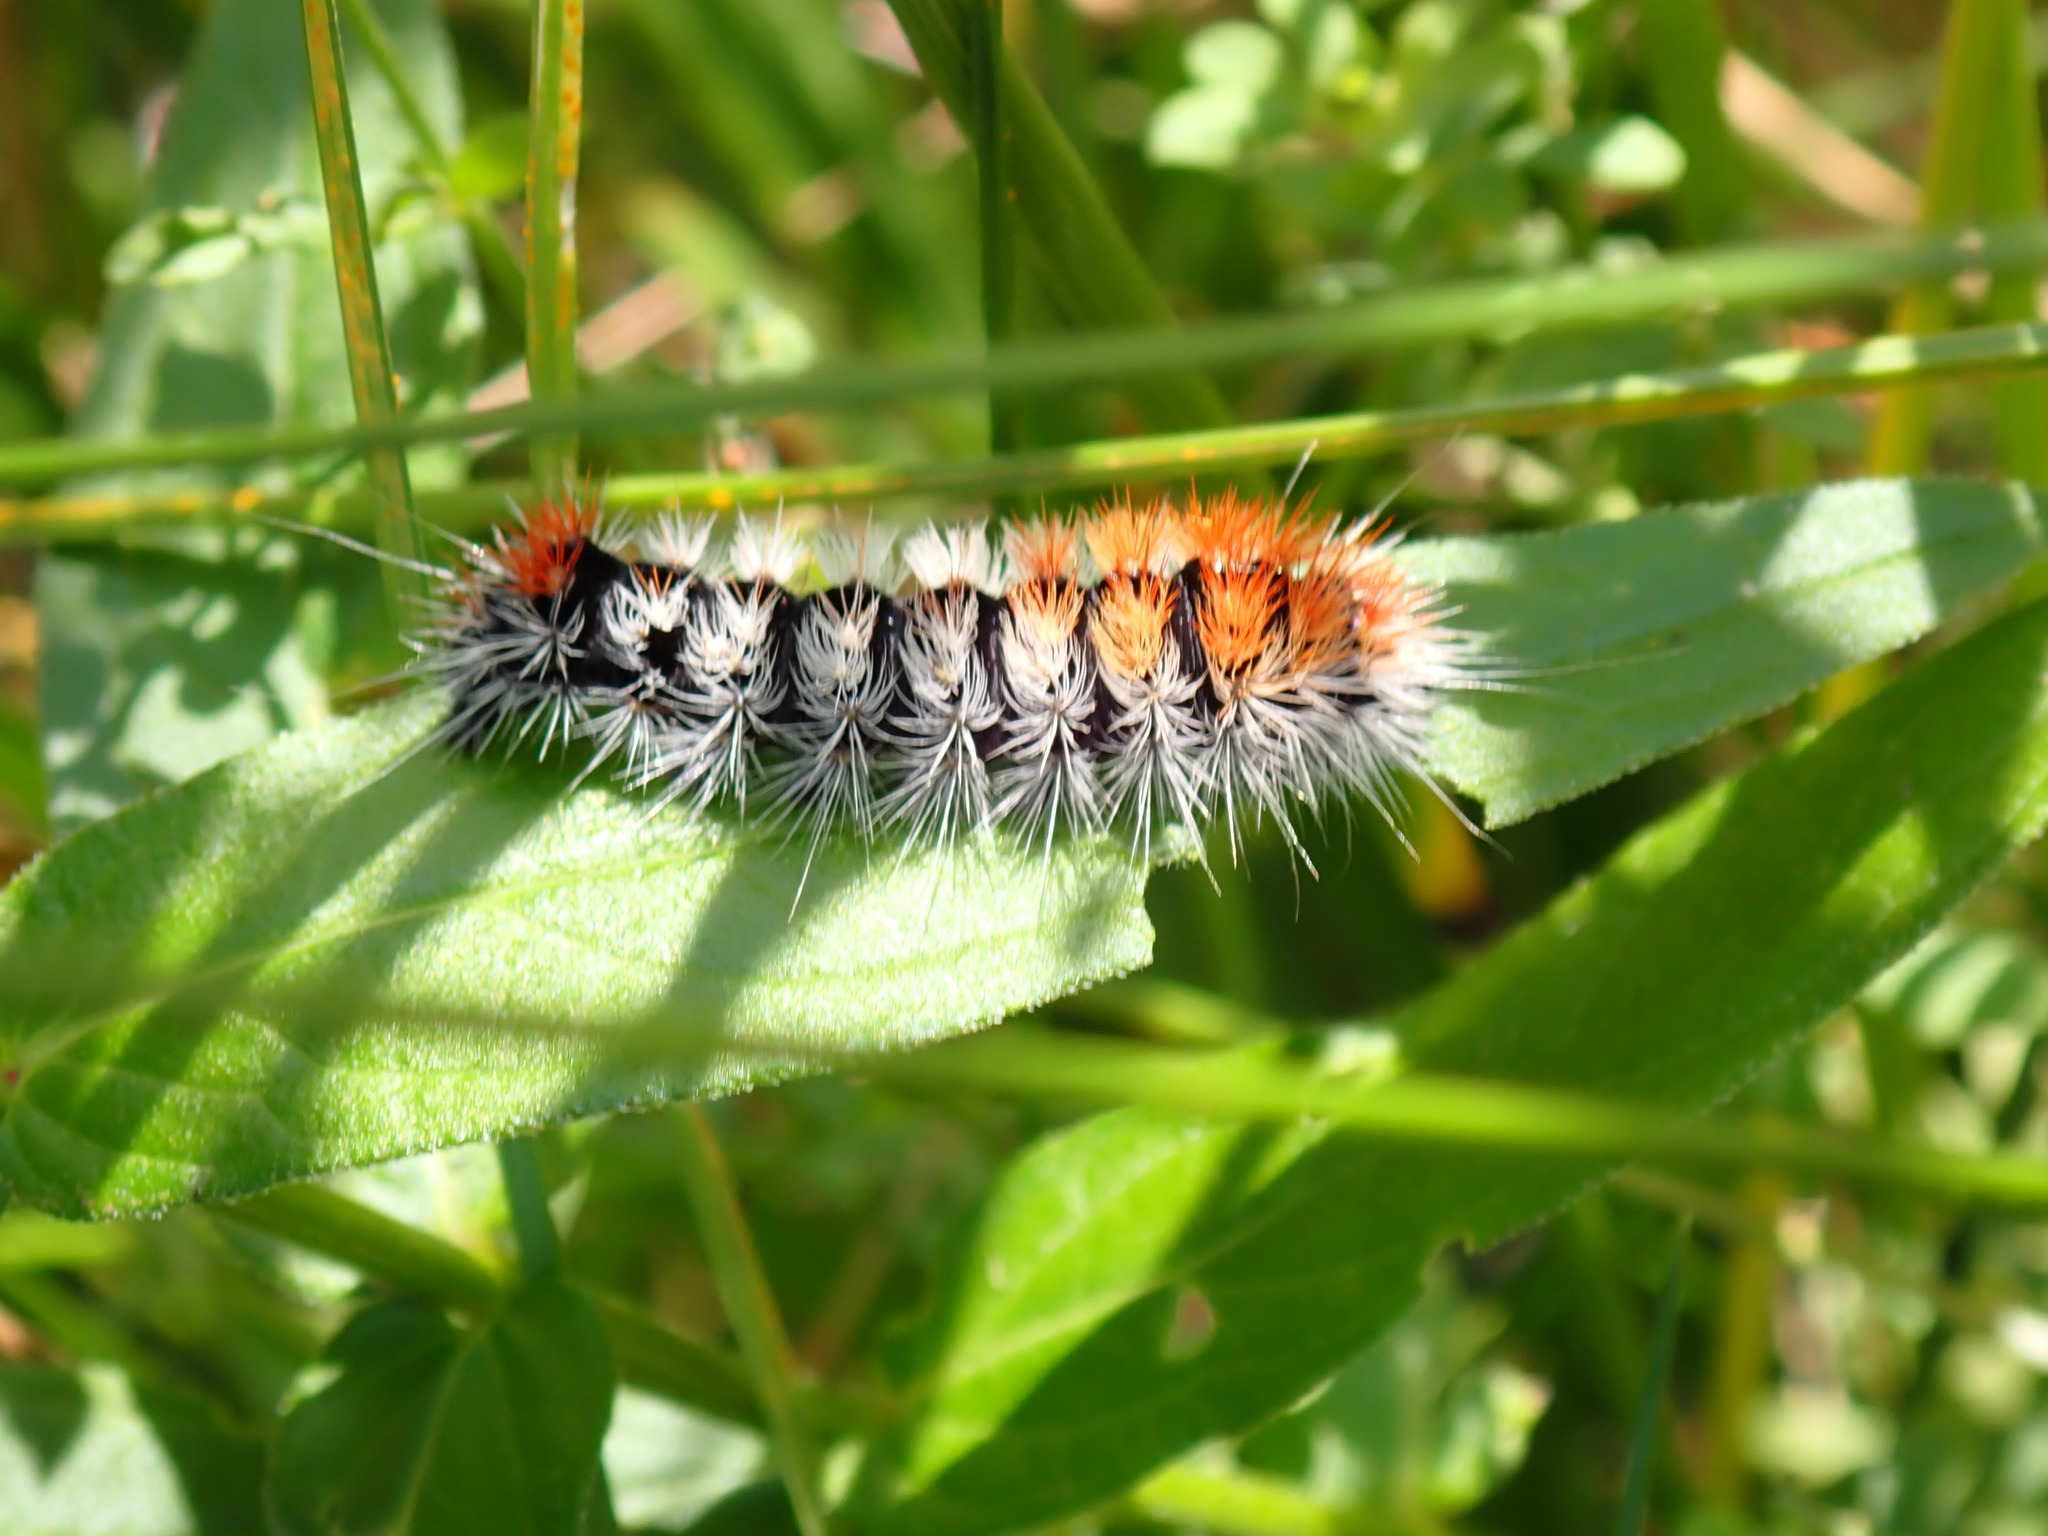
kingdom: Animalia
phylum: Arthropoda
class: Insecta
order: Lepidoptera
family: Noctuidae
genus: Acronicta
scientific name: Acronicta impressa
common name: Impressed dagger
